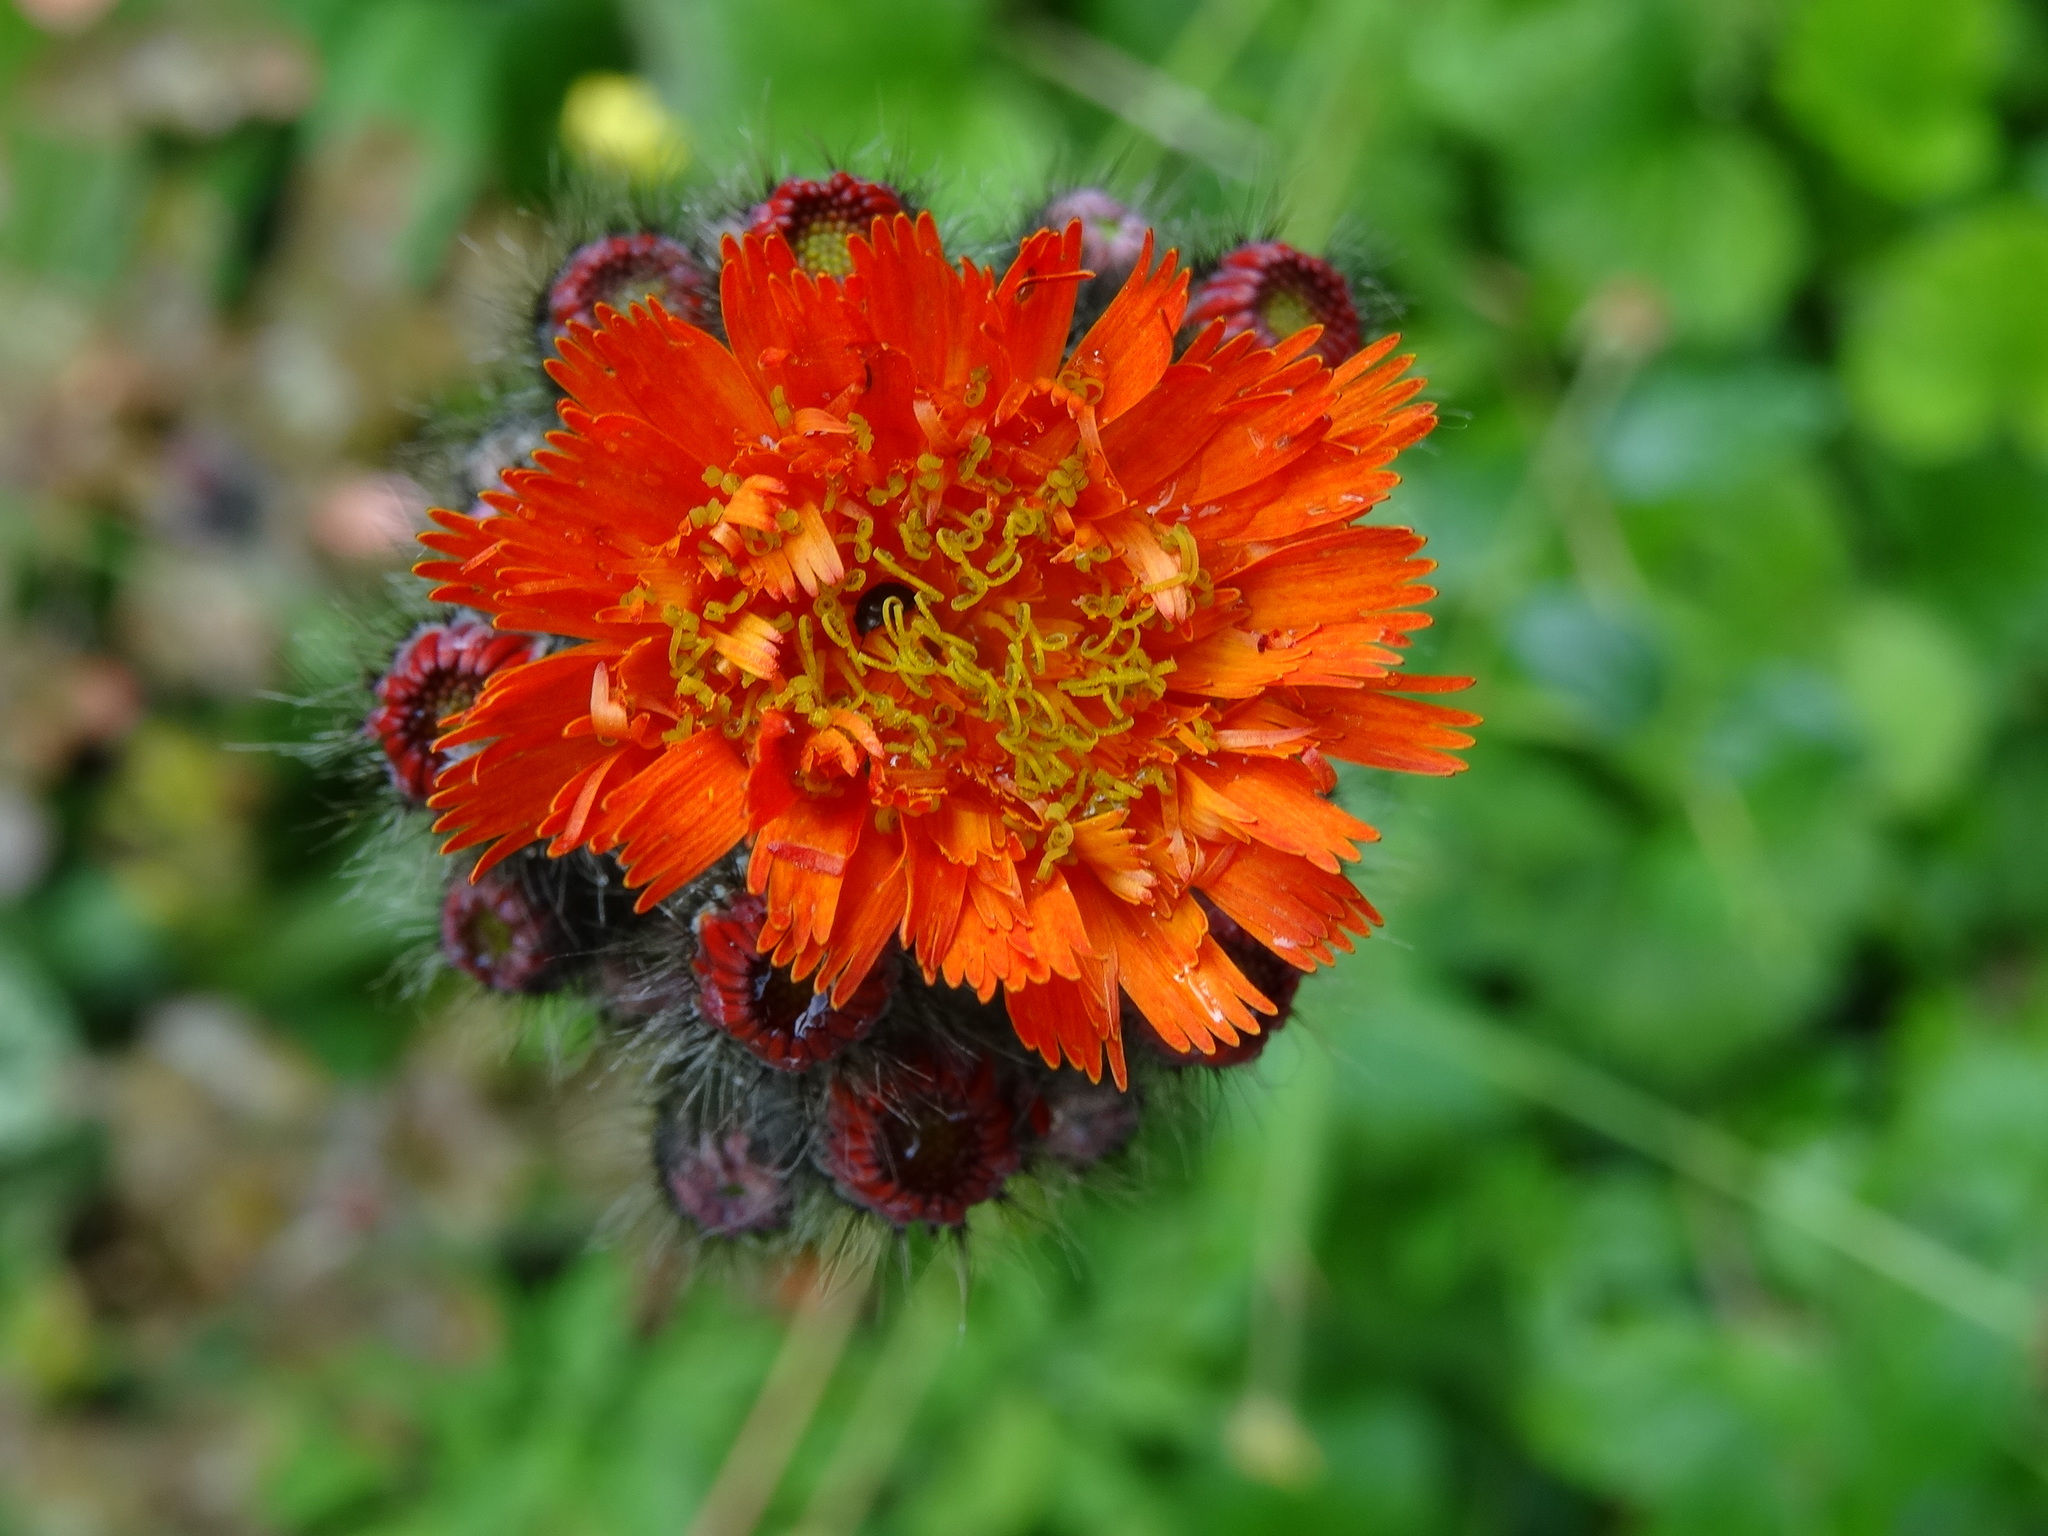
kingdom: Plantae
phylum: Tracheophyta
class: Magnoliopsida
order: Asterales
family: Asteraceae
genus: Pilosella
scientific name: Pilosella aurantiaca
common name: Fox-and-cubs
